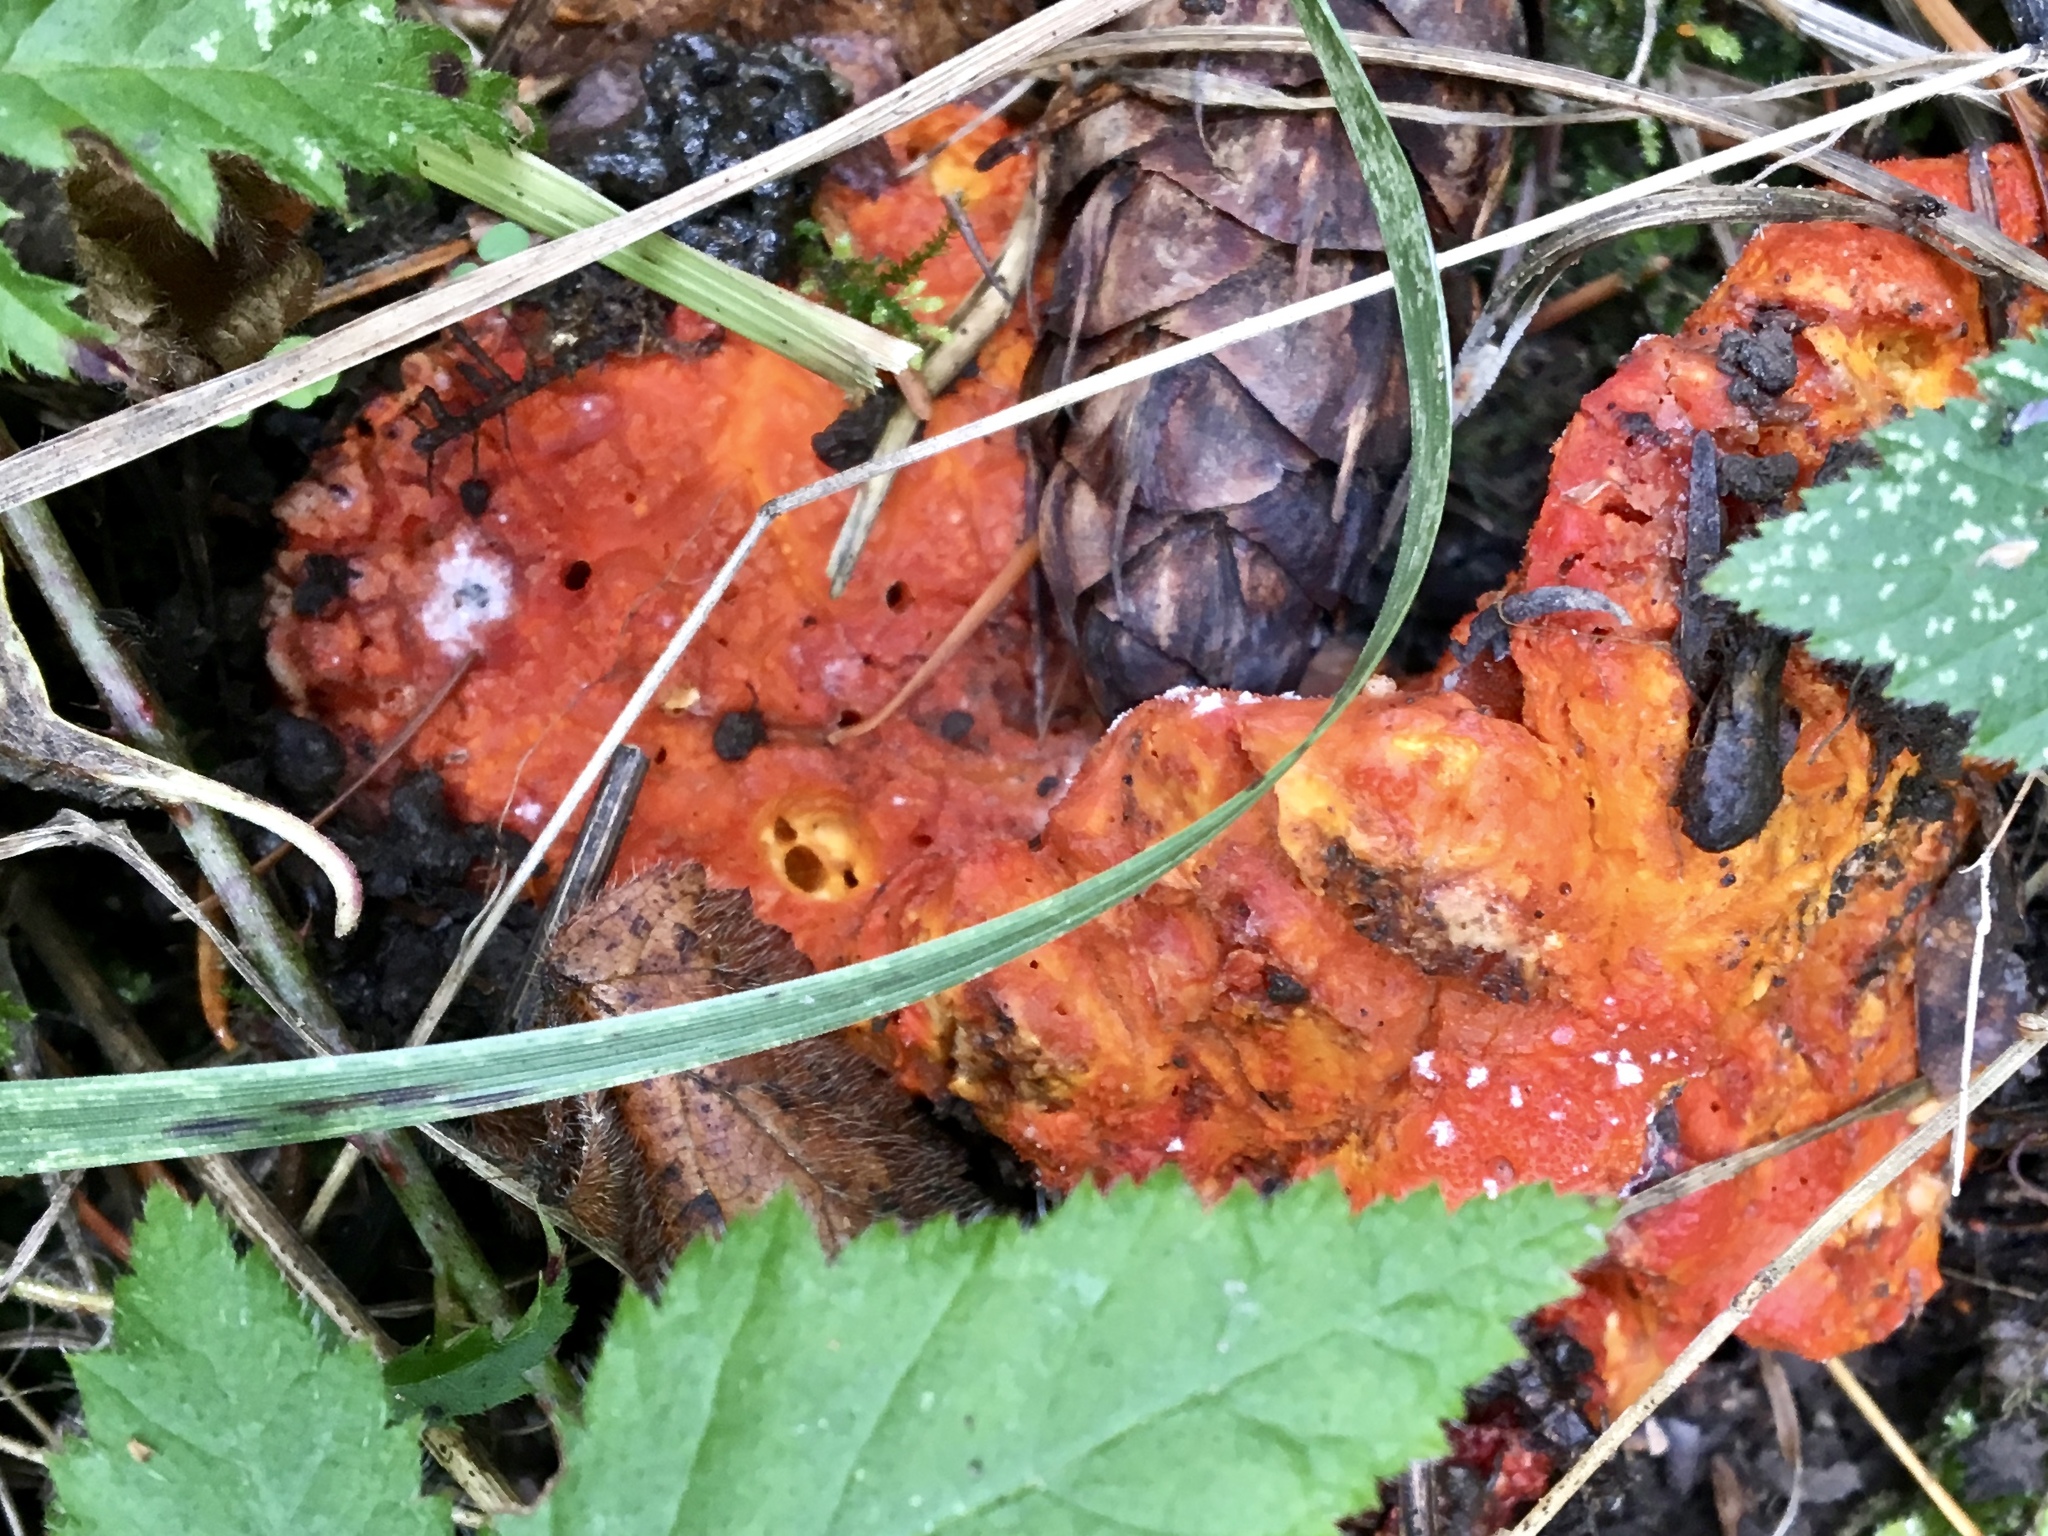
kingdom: Fungi
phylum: Ascomycota
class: Sordariomycetes
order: Hypocreales
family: Hypocreaceae
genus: Hypomyces
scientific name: Hypomyces lactifluorum
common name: Lobster mushroom
